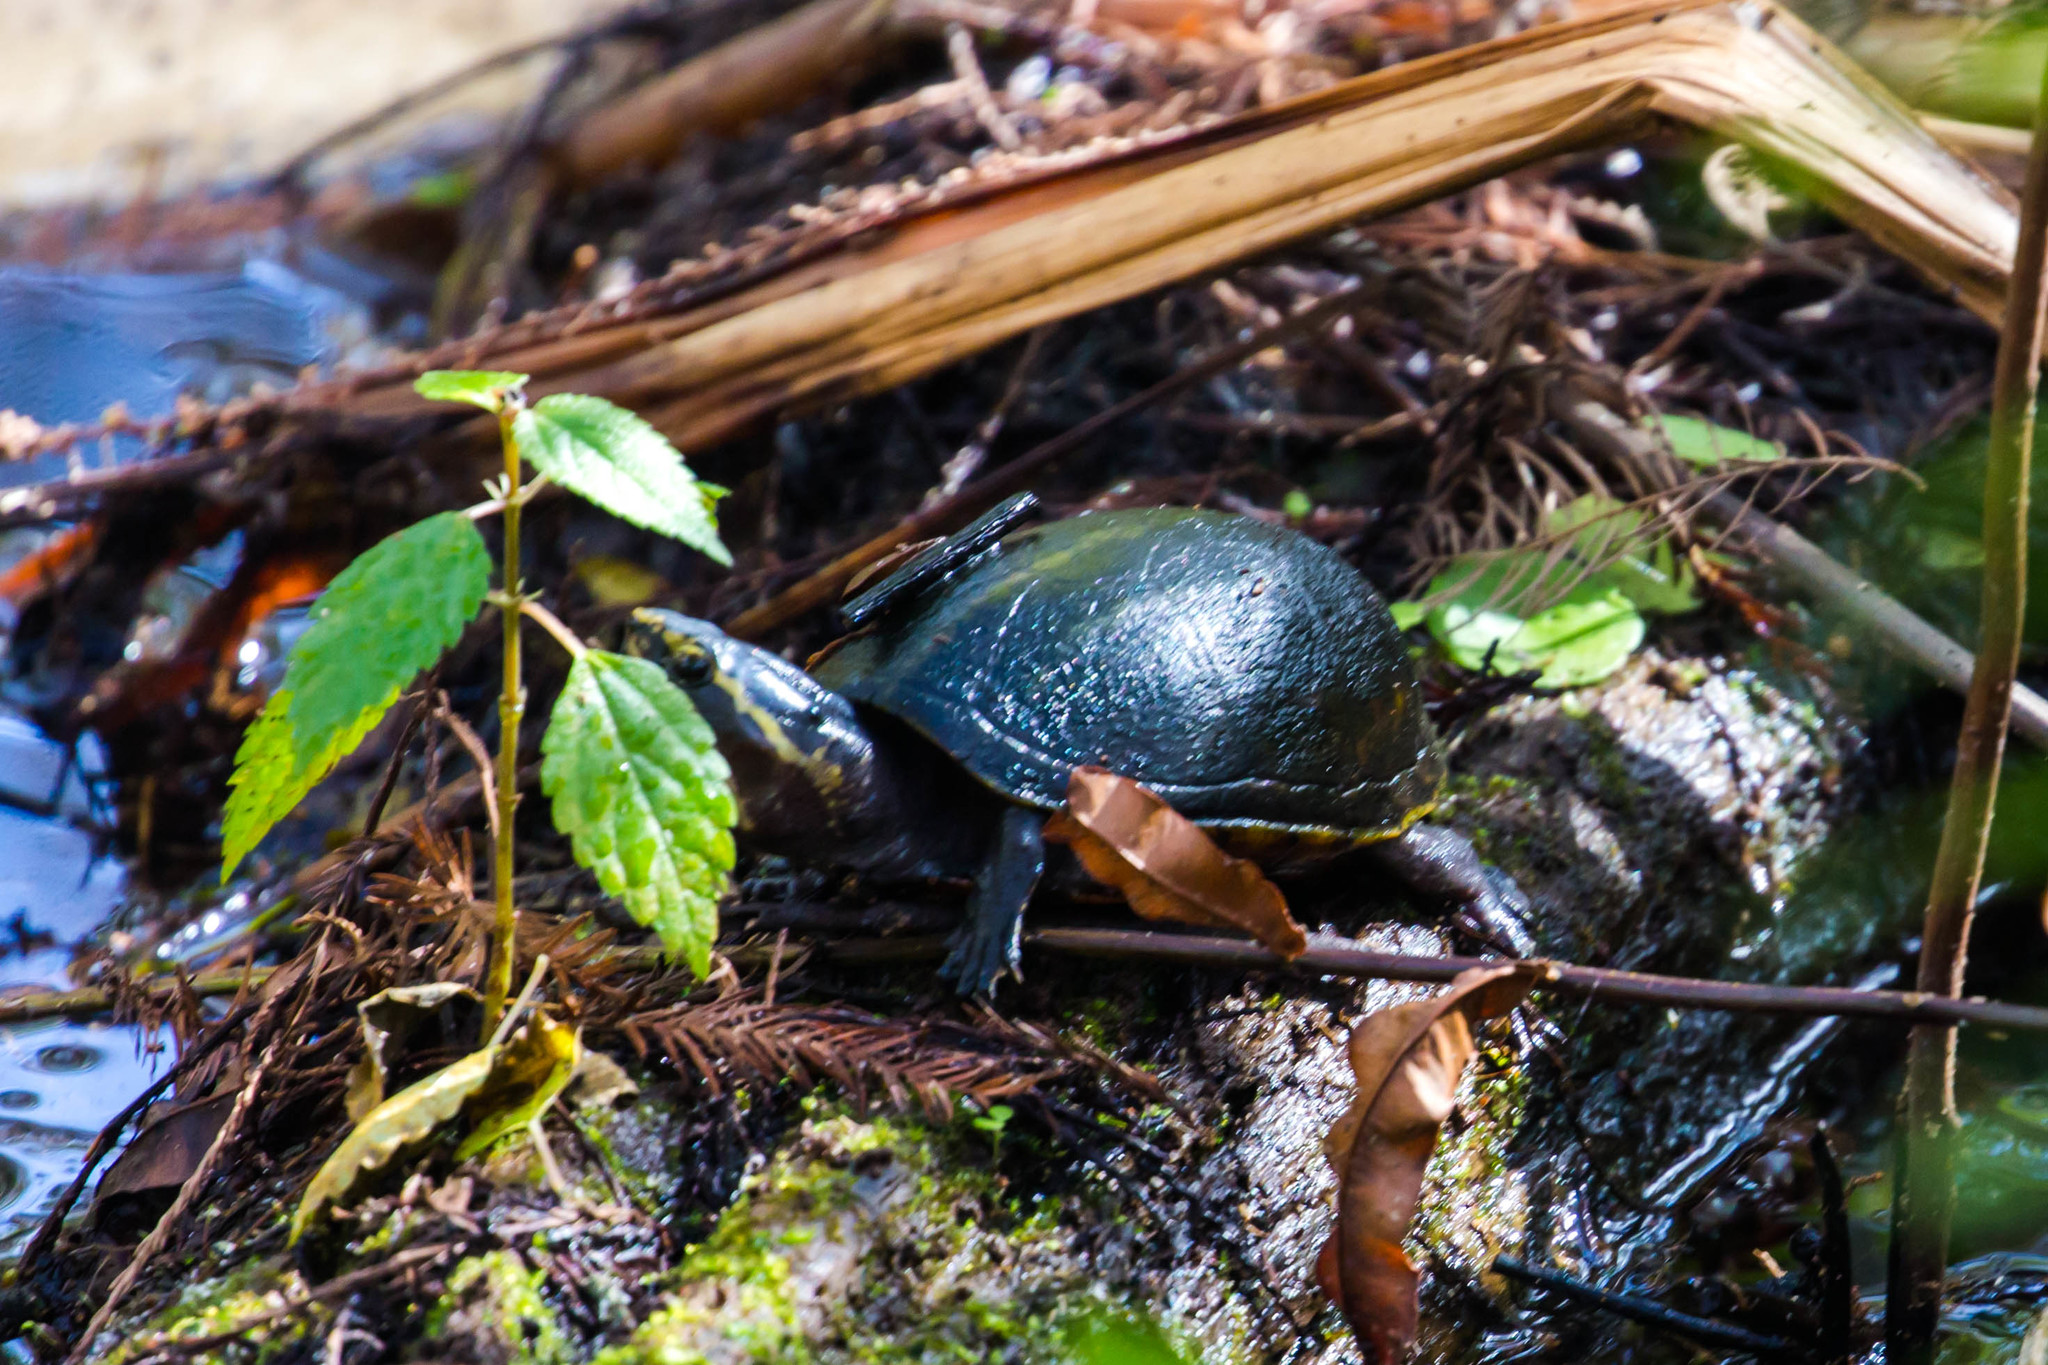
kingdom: Animalia
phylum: Chordata
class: Testudines
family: Kinosternidae
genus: Kinosternon
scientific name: Kinosternon baurii
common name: Striped mud turtle
